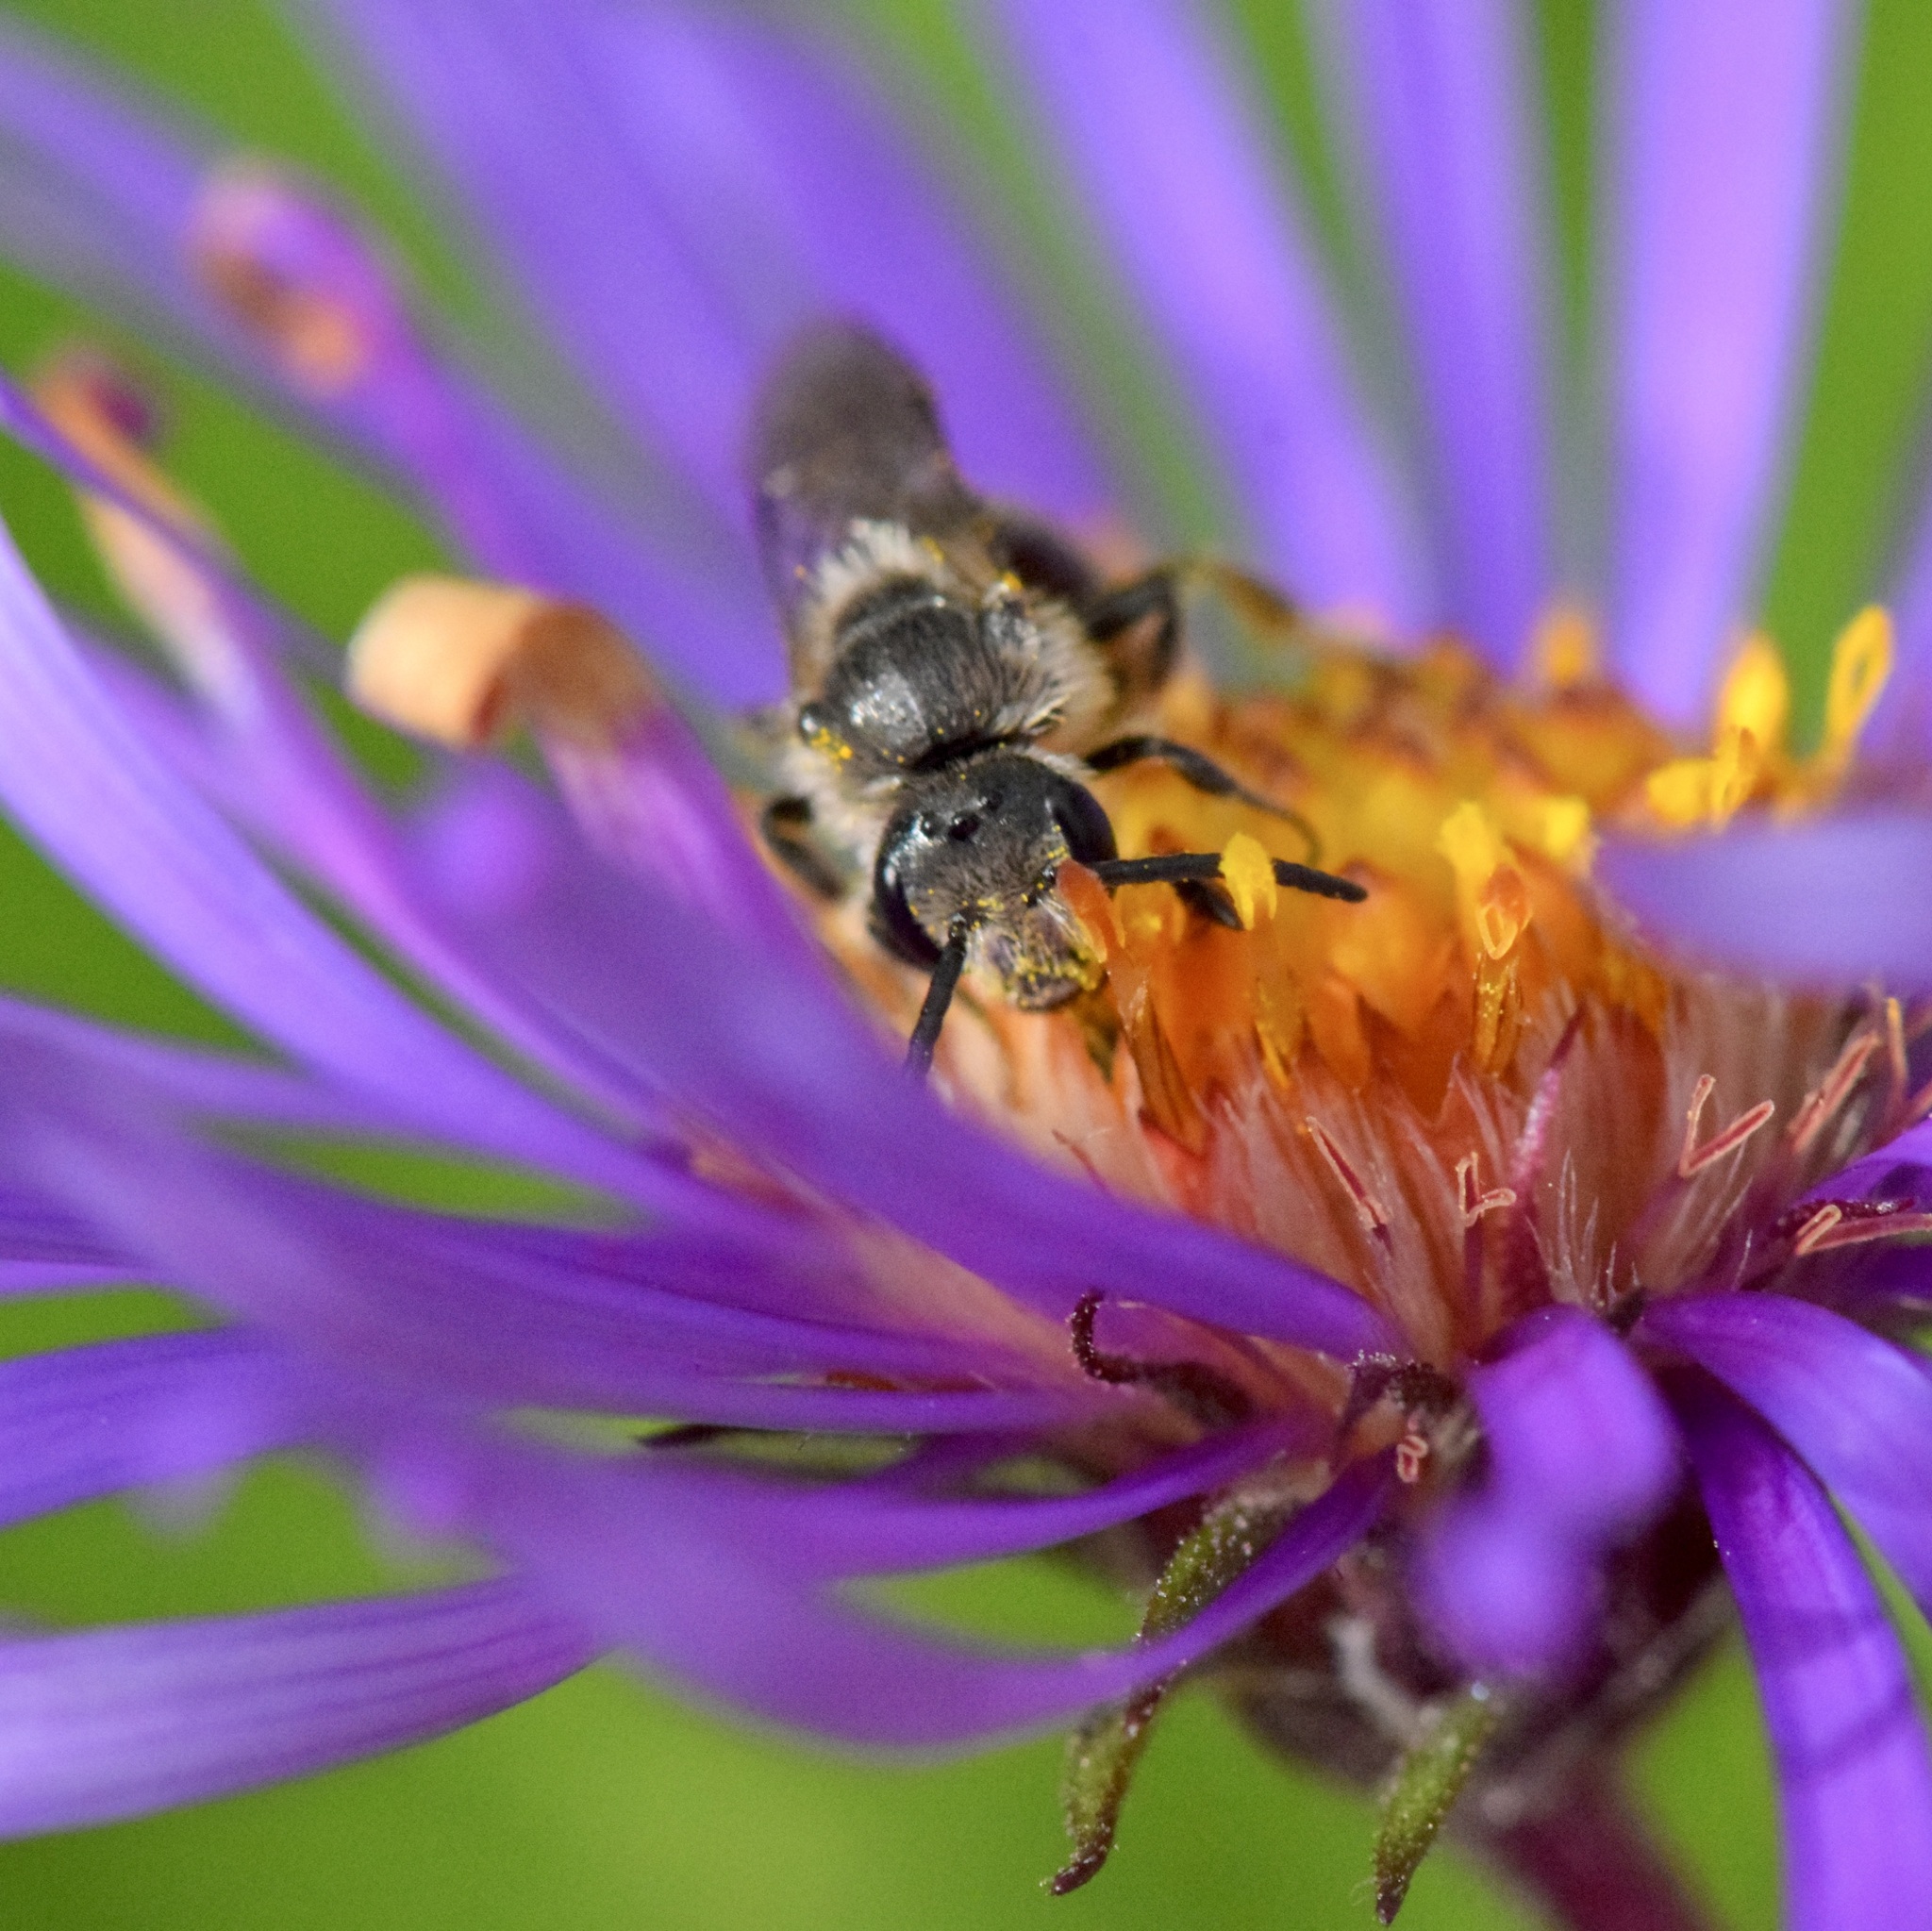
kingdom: Animalia
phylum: Arthropoda
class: Insecta
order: Hymenoptera
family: Halictidae
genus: Lasioglossum
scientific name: Lasioglossum leucozonium
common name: White-zoned furrow bee
